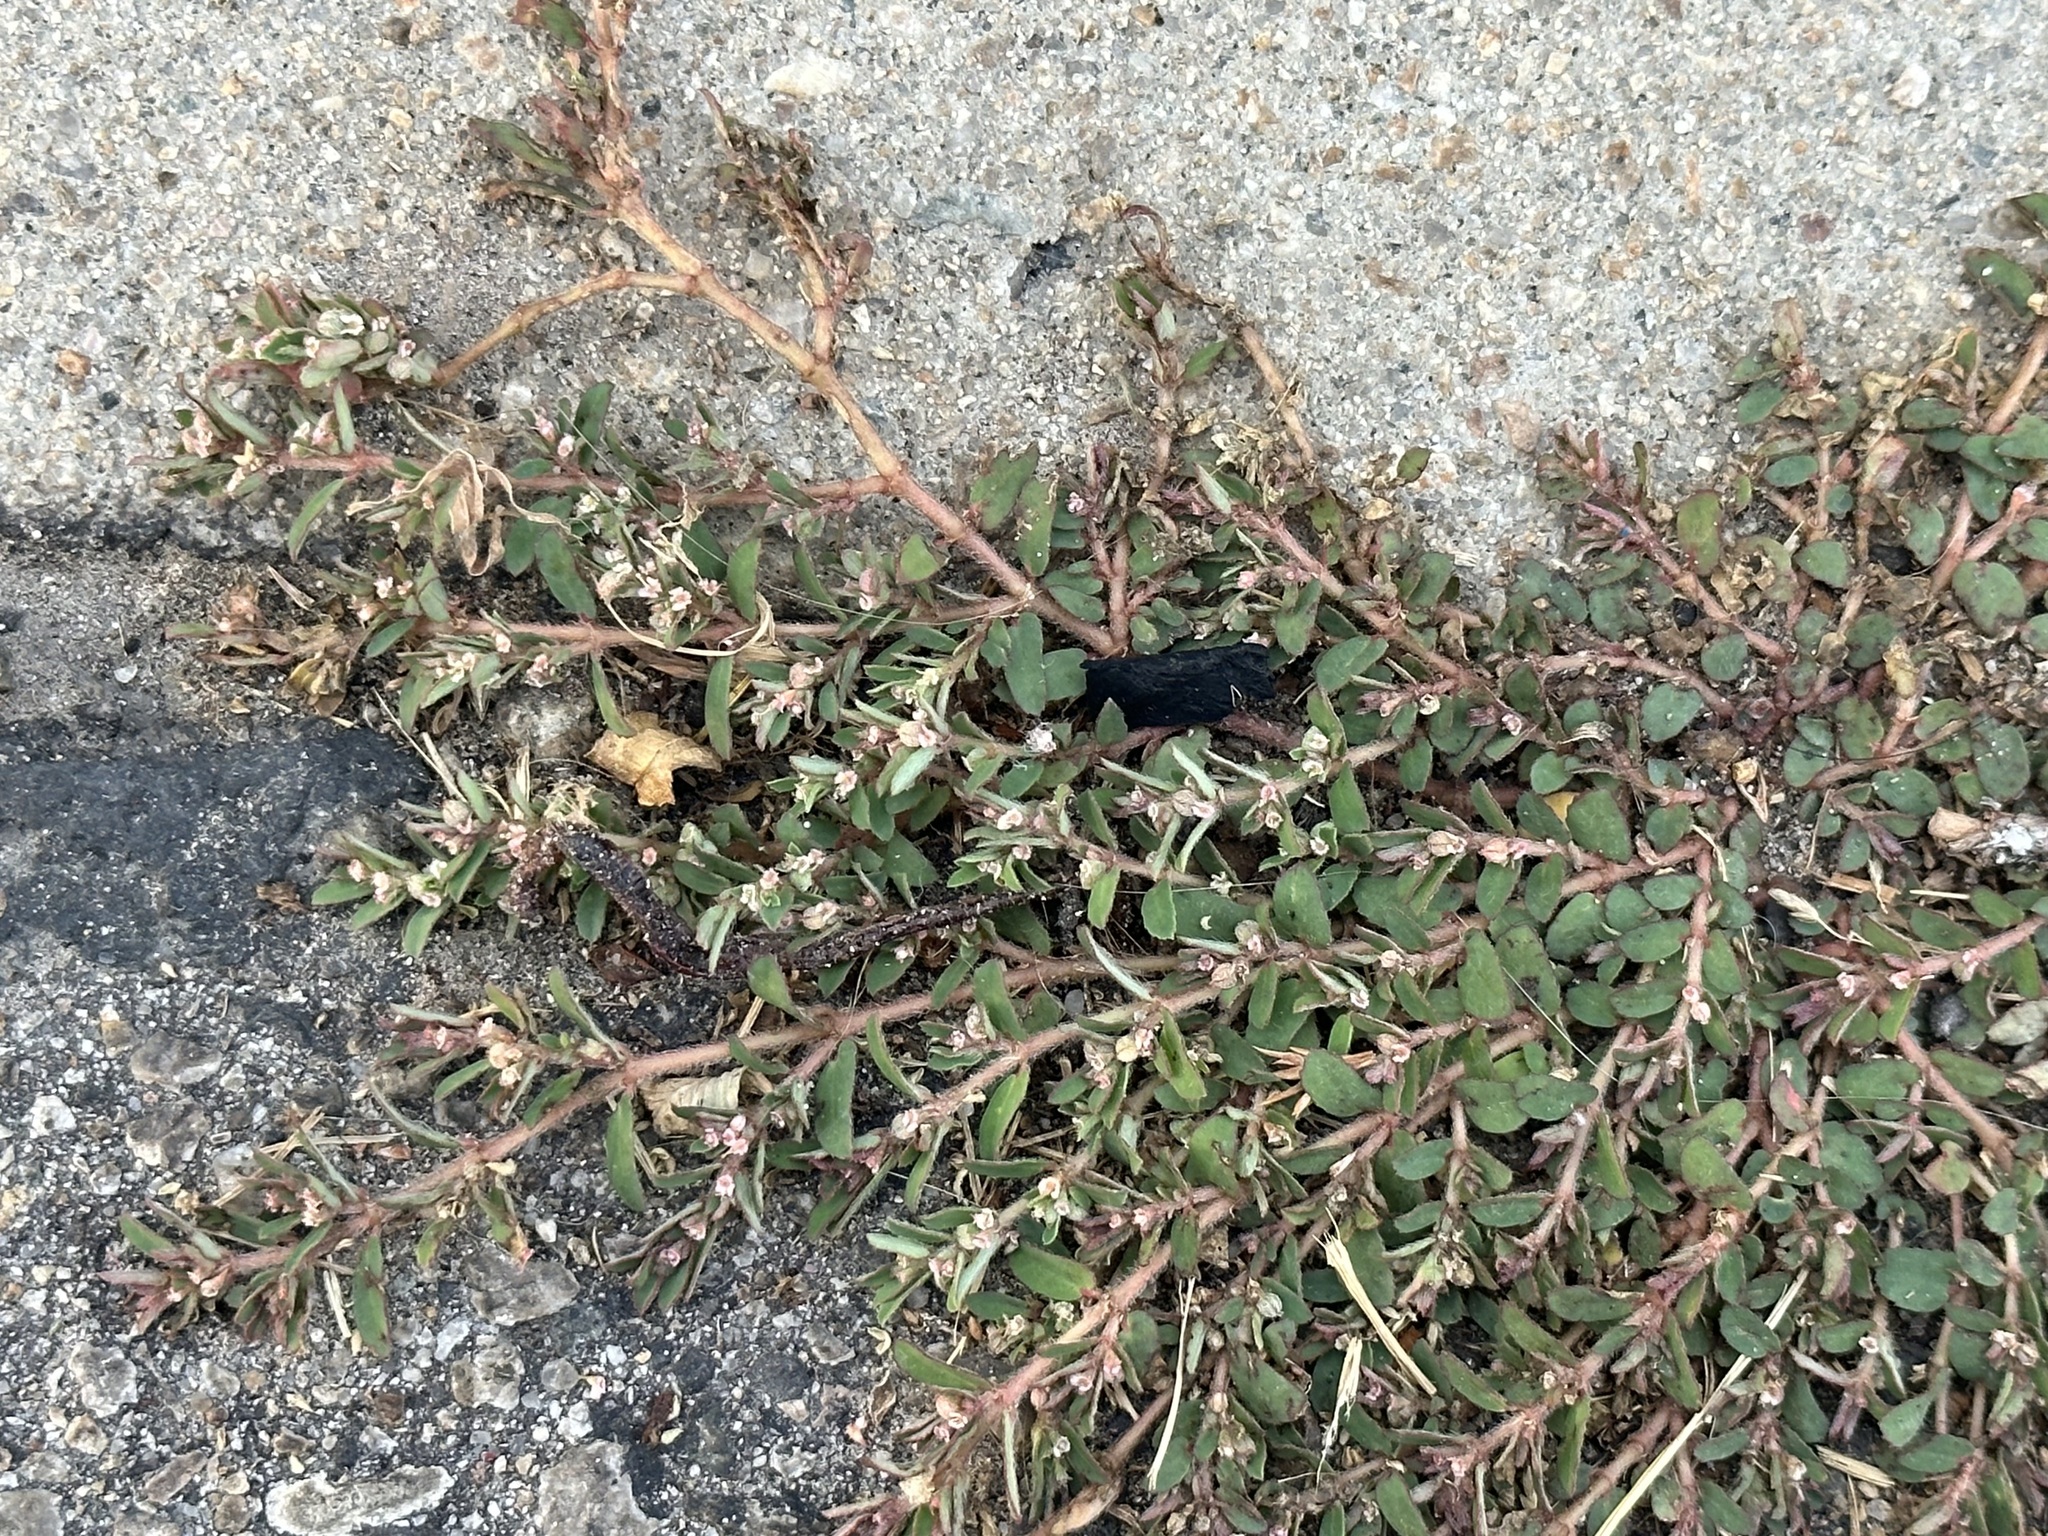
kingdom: Plantae
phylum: Tracheophyta
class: Magnoliopsida
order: Malpighiales
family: Euphorbiaceae
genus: Euphorbia
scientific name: Euphorbia maculata
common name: Spotted spurge
